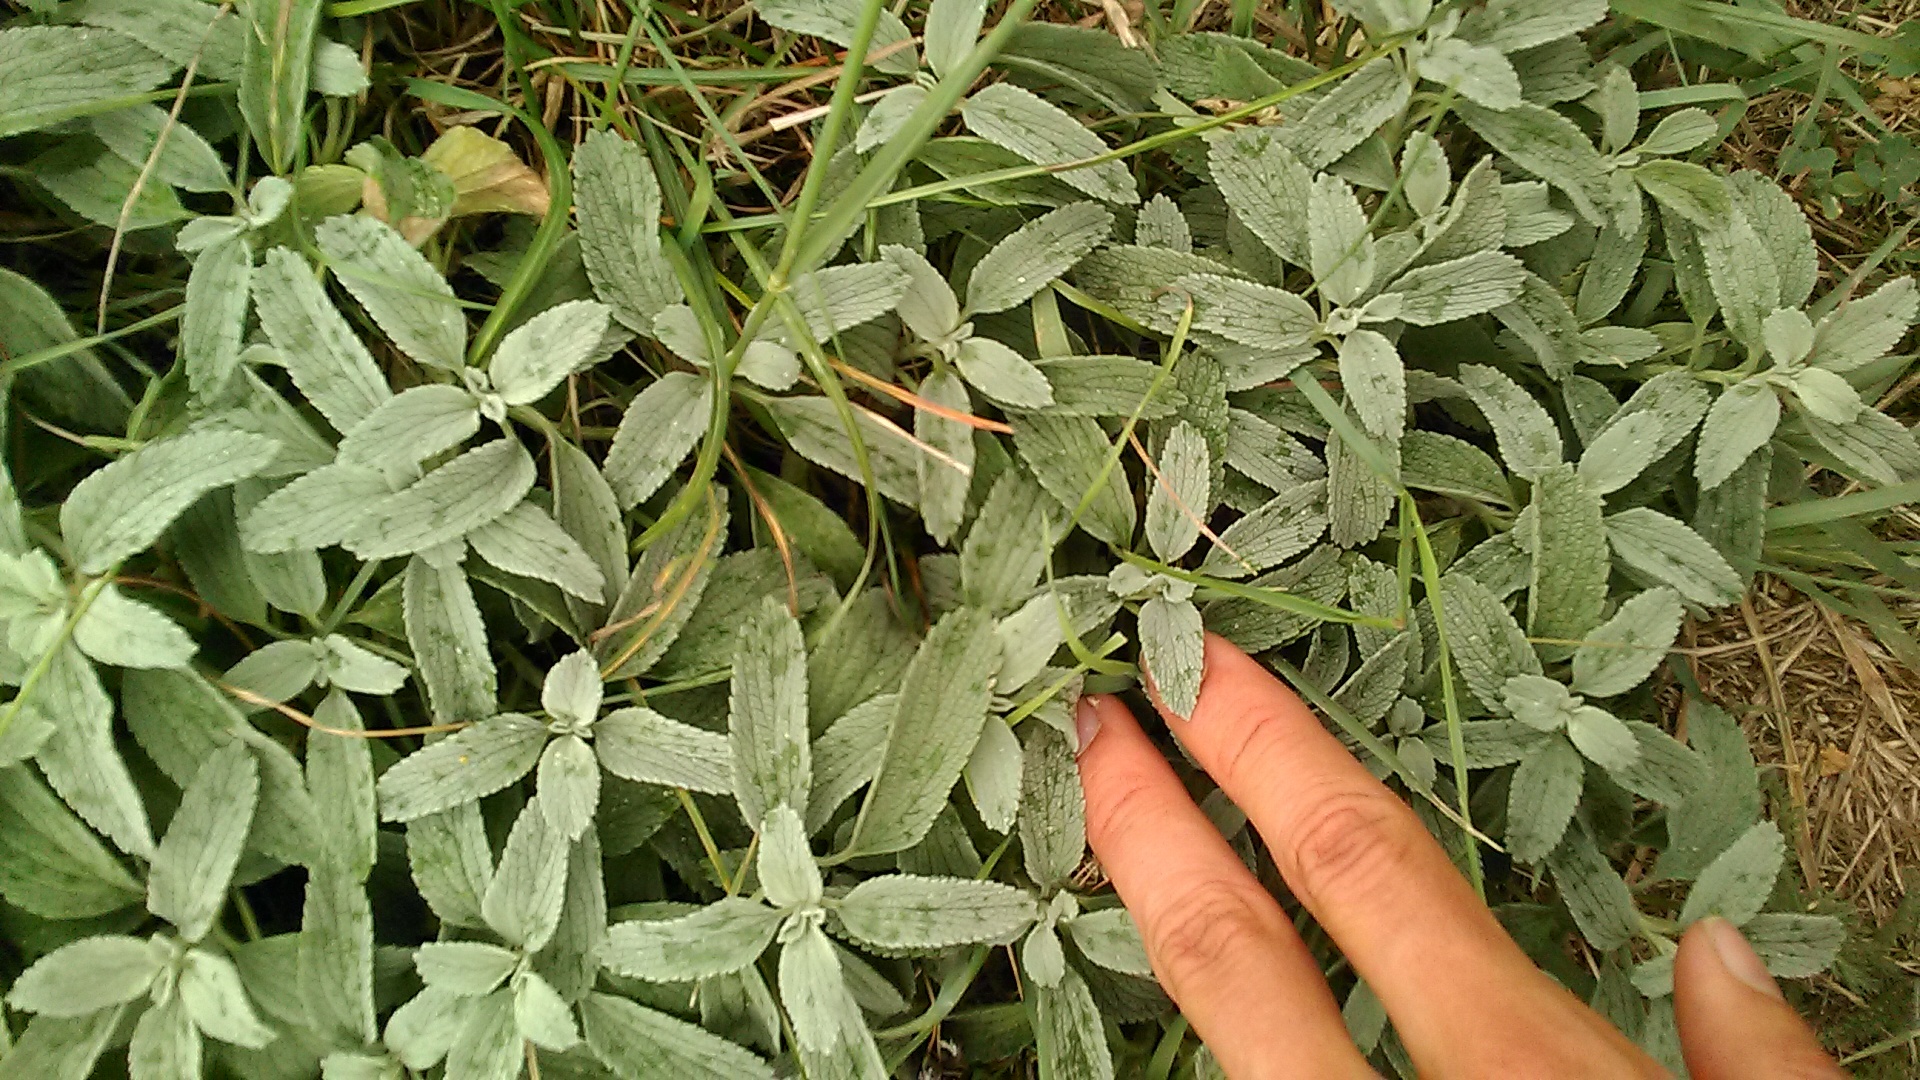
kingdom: Plantae
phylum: Tracheophyta
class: Magnoliopsida
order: Lamiales
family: Lamiaceae
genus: Marrubium
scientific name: Marrubium peregrinum
